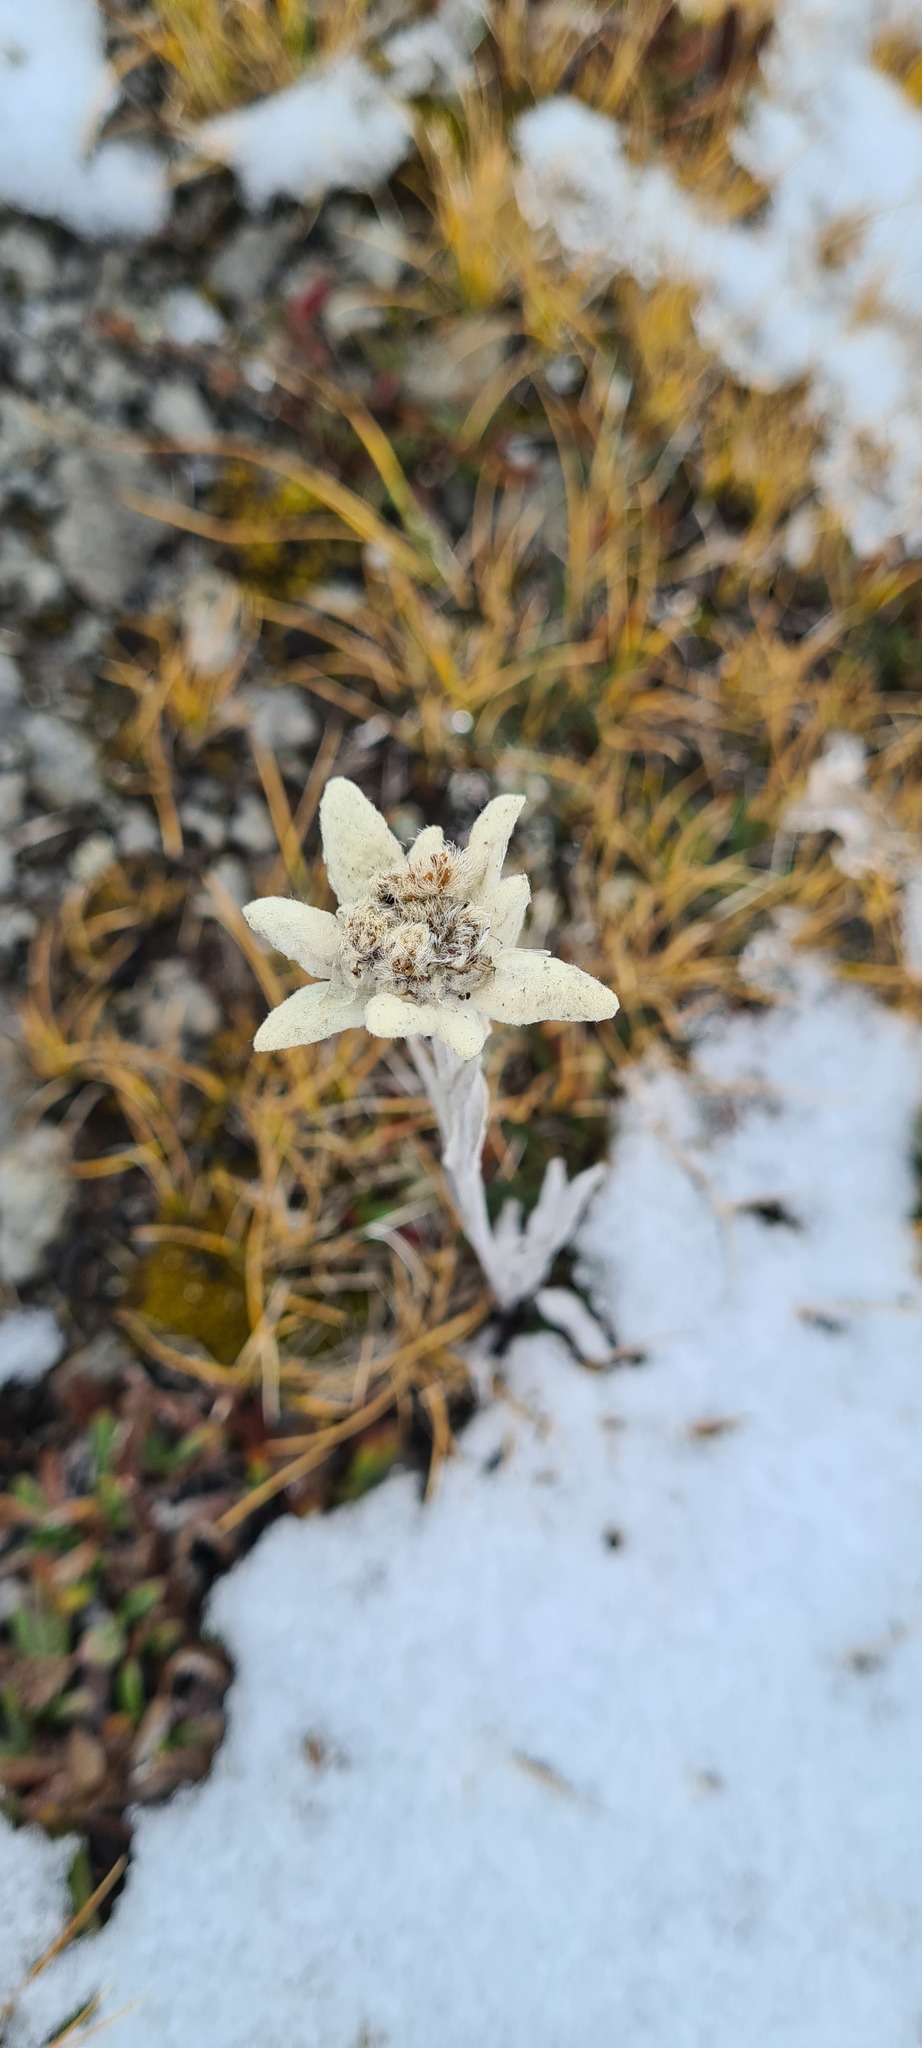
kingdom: Plantae
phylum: Tracheophyta
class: Magnoliopsida
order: Asterales
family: Asteraceae
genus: Leontopodium
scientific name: Leontopodium nivale
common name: Edelweiss
